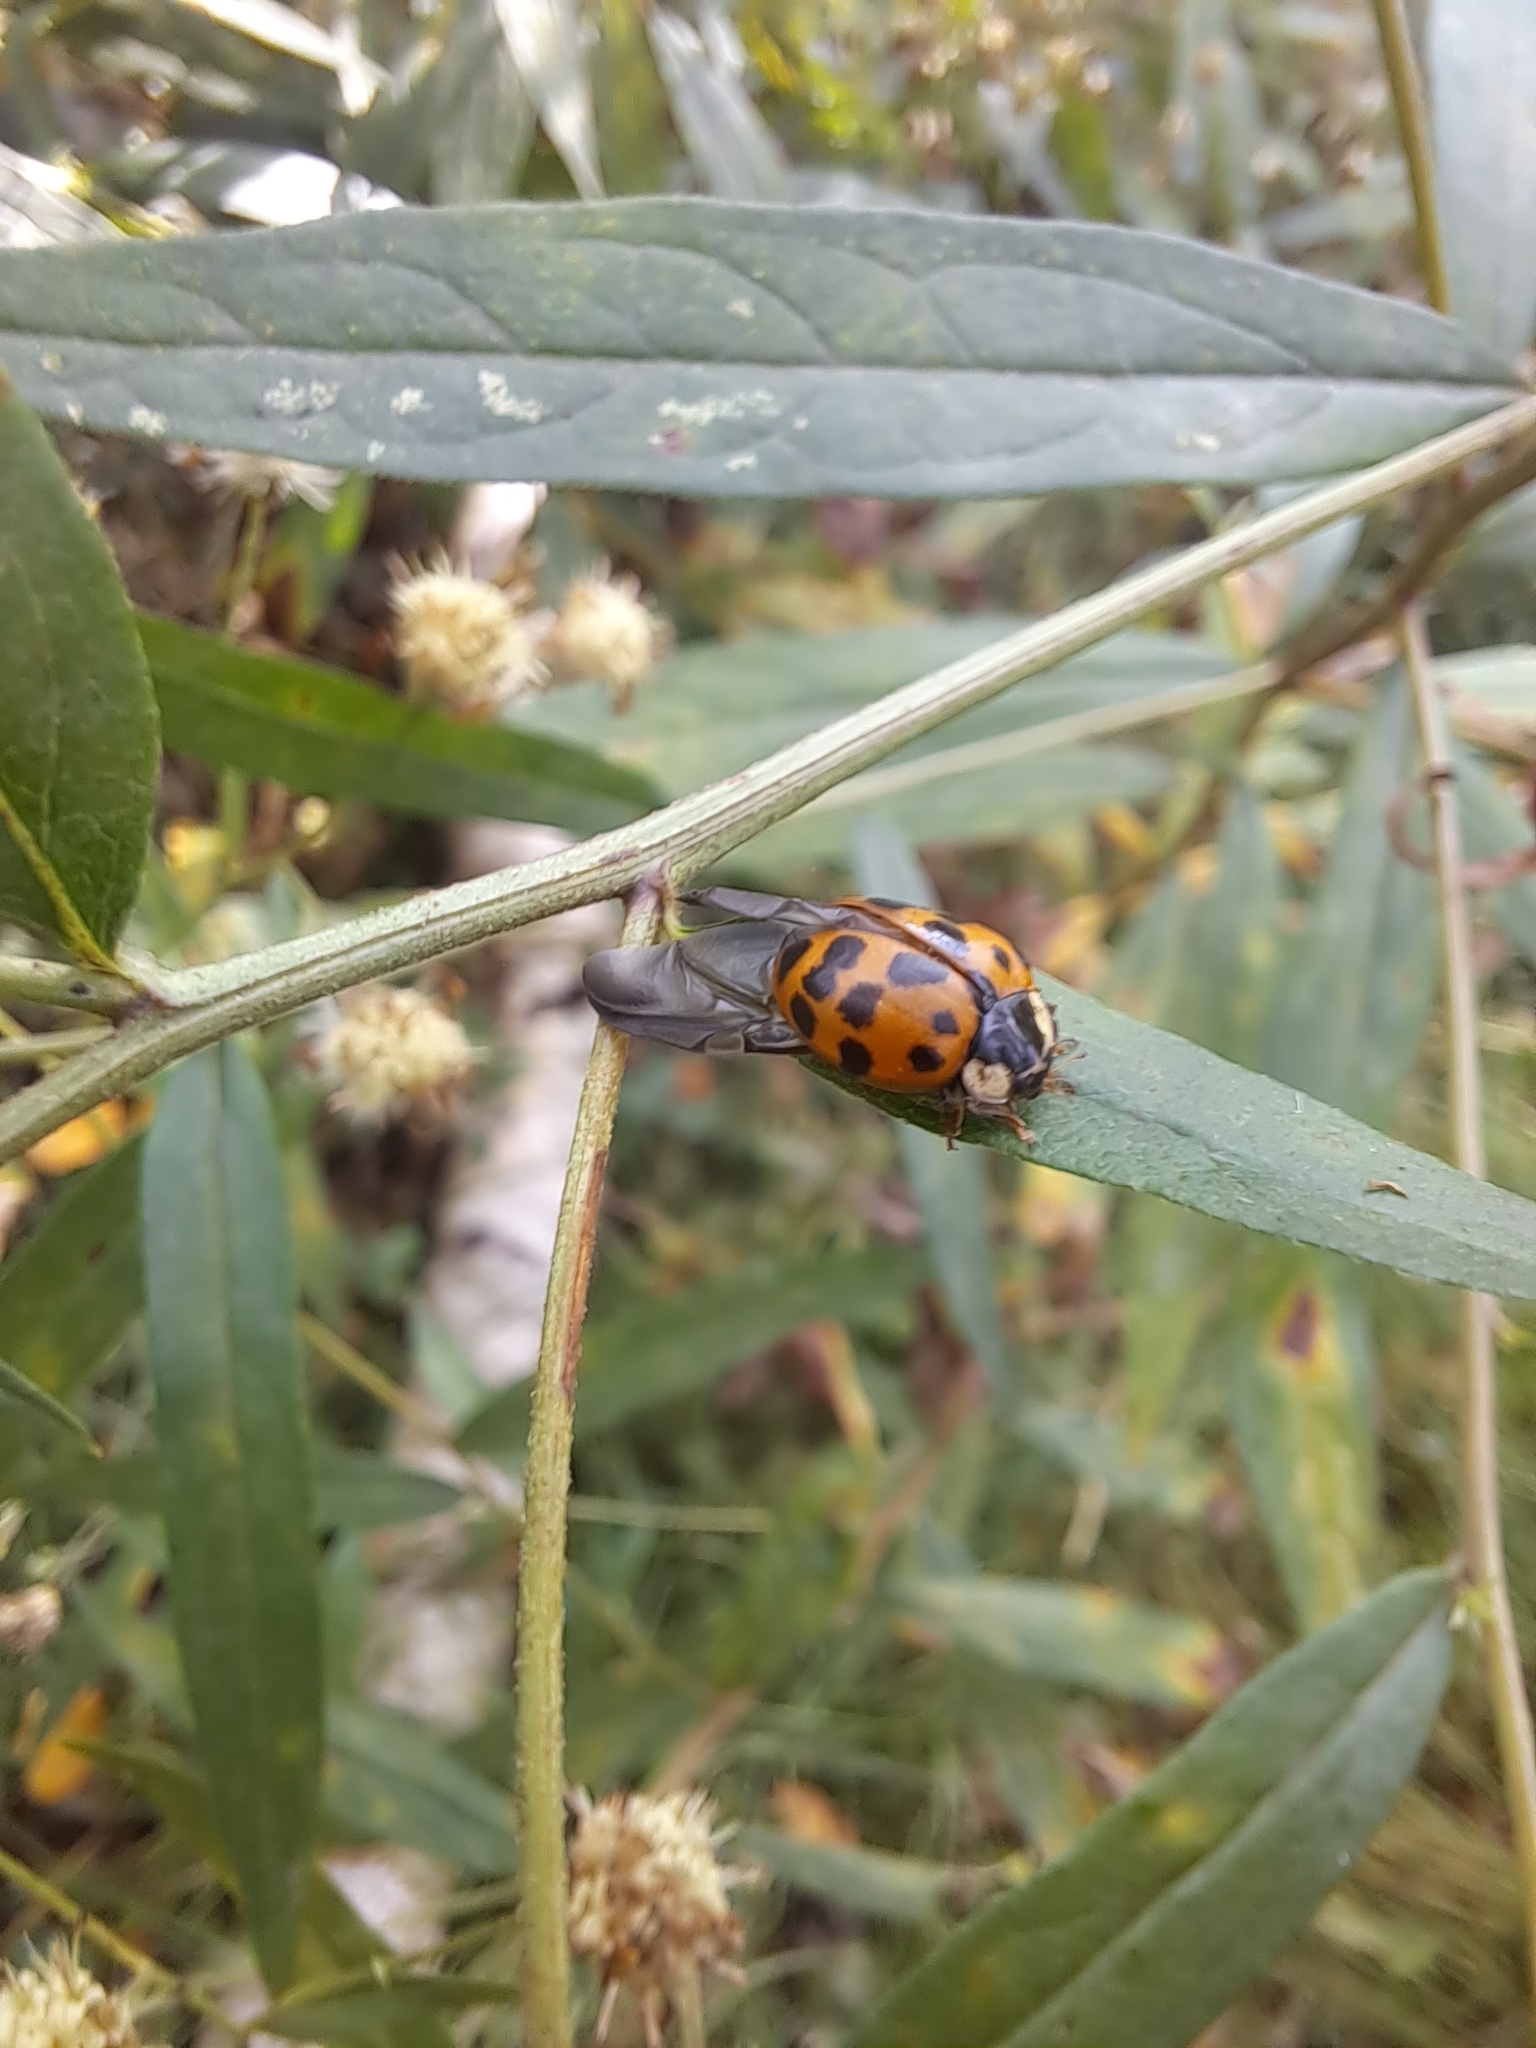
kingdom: Animalia
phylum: Arthropoda
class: Insecta
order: Coleoptera
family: Coccinellidae
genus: Harmonia
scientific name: Harmonia axyridis
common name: Harlequin ladybird
